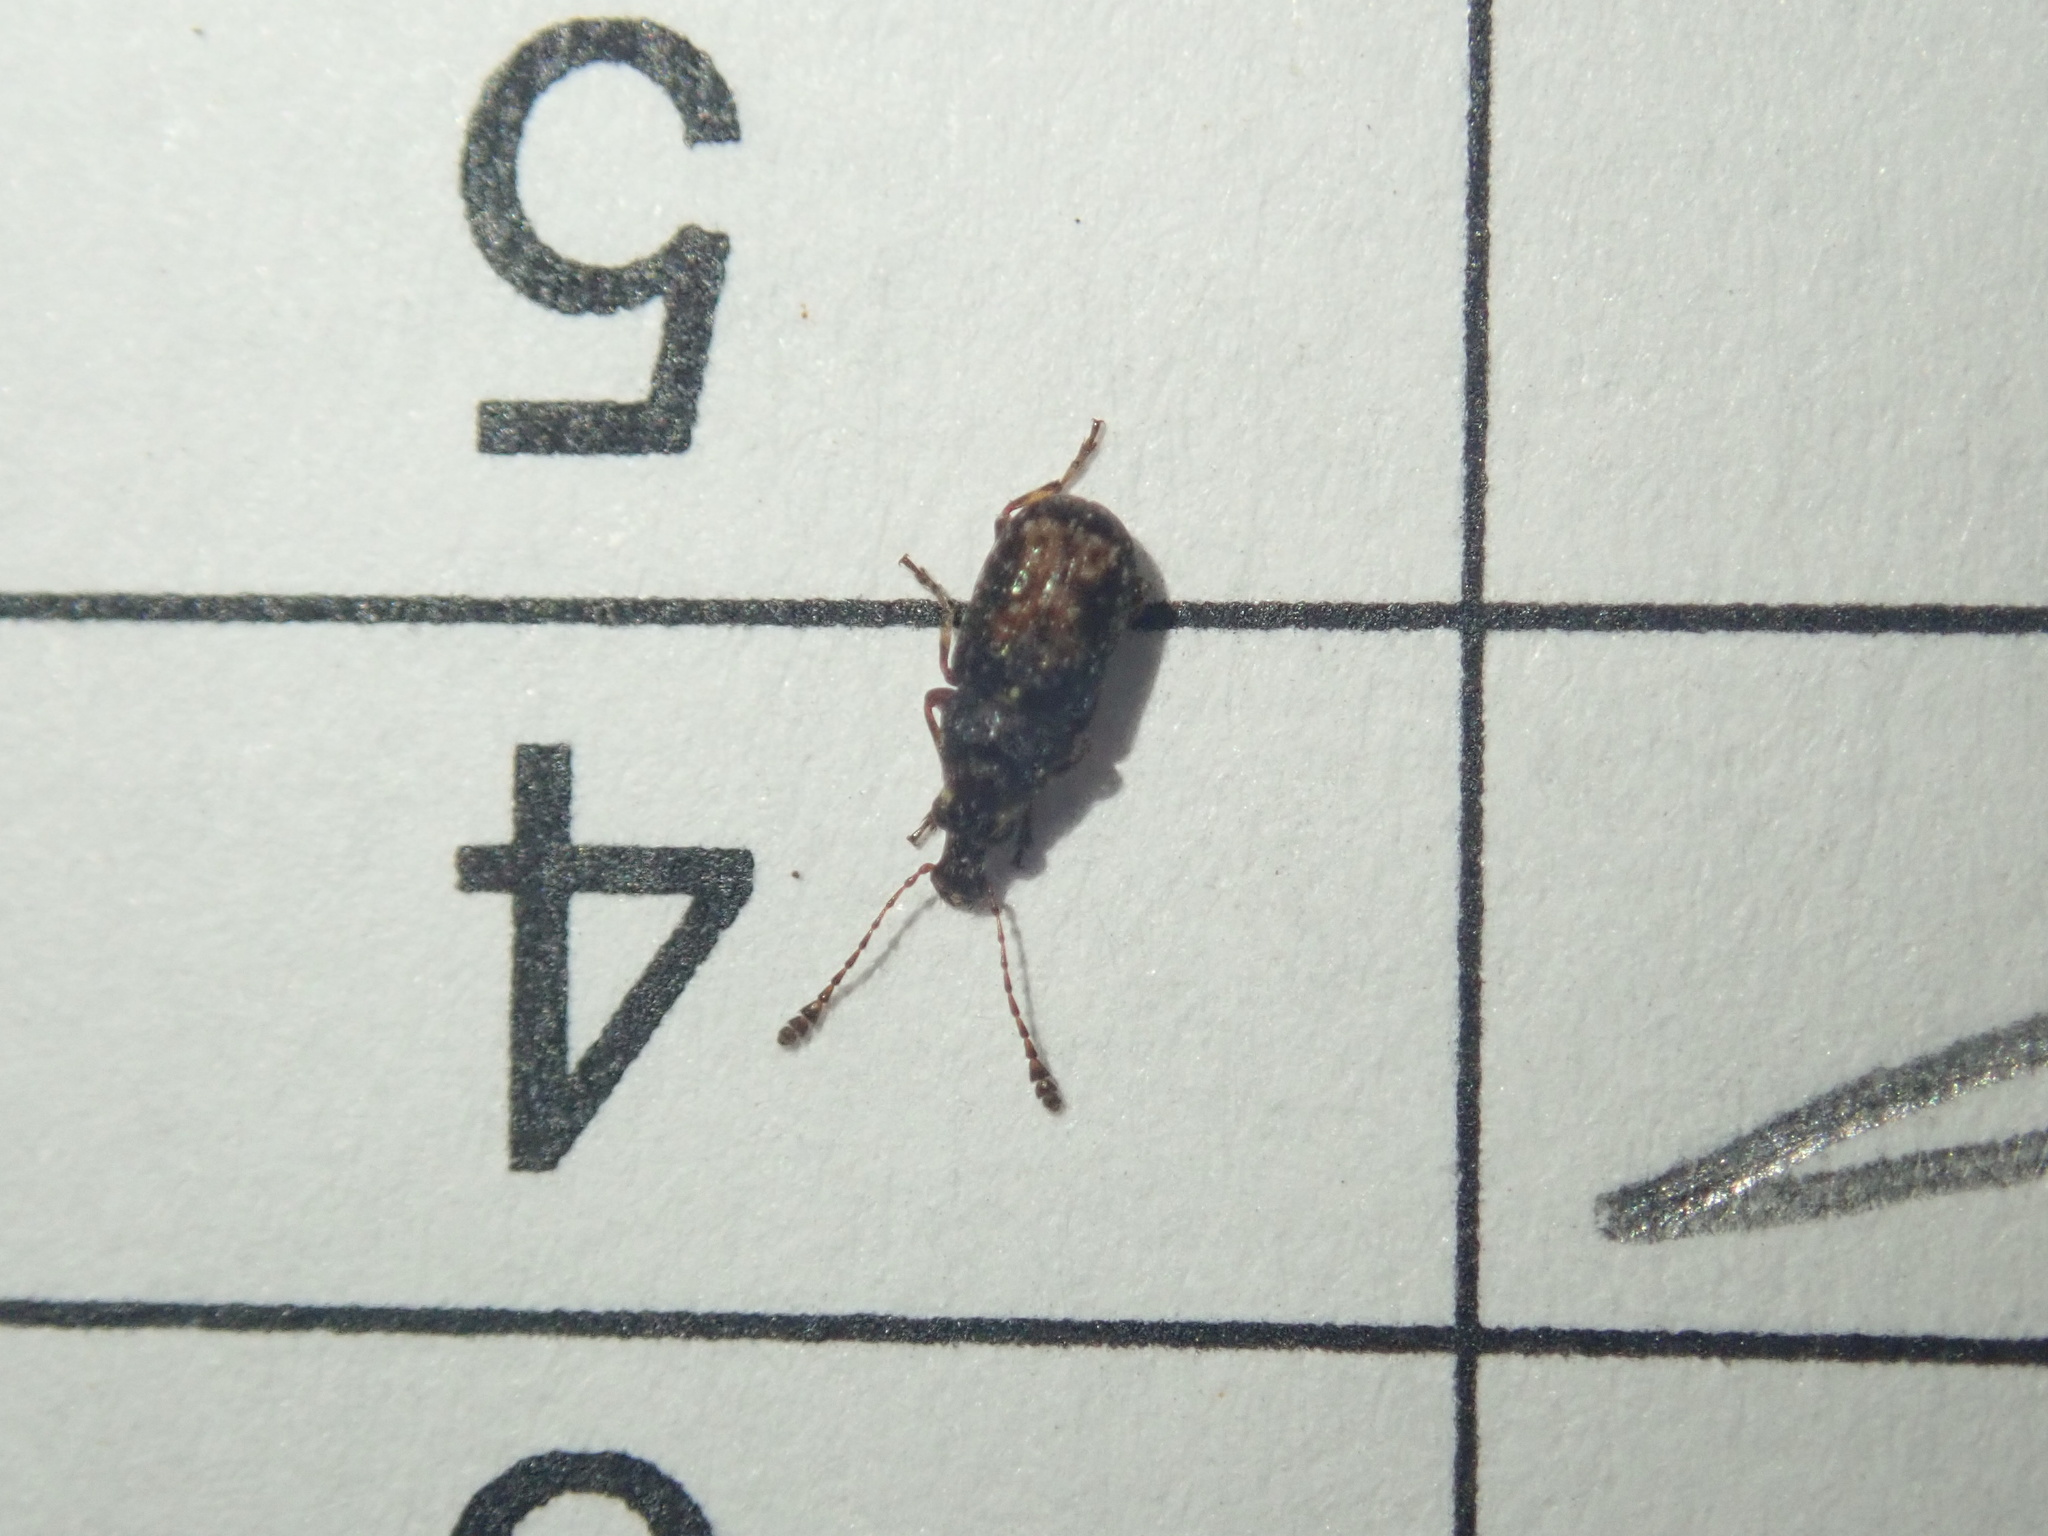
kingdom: Animalia
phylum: Arthropoda
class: Insecta
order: Coleoptera
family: Anthribidae
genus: Sharpius
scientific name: Sharpius
